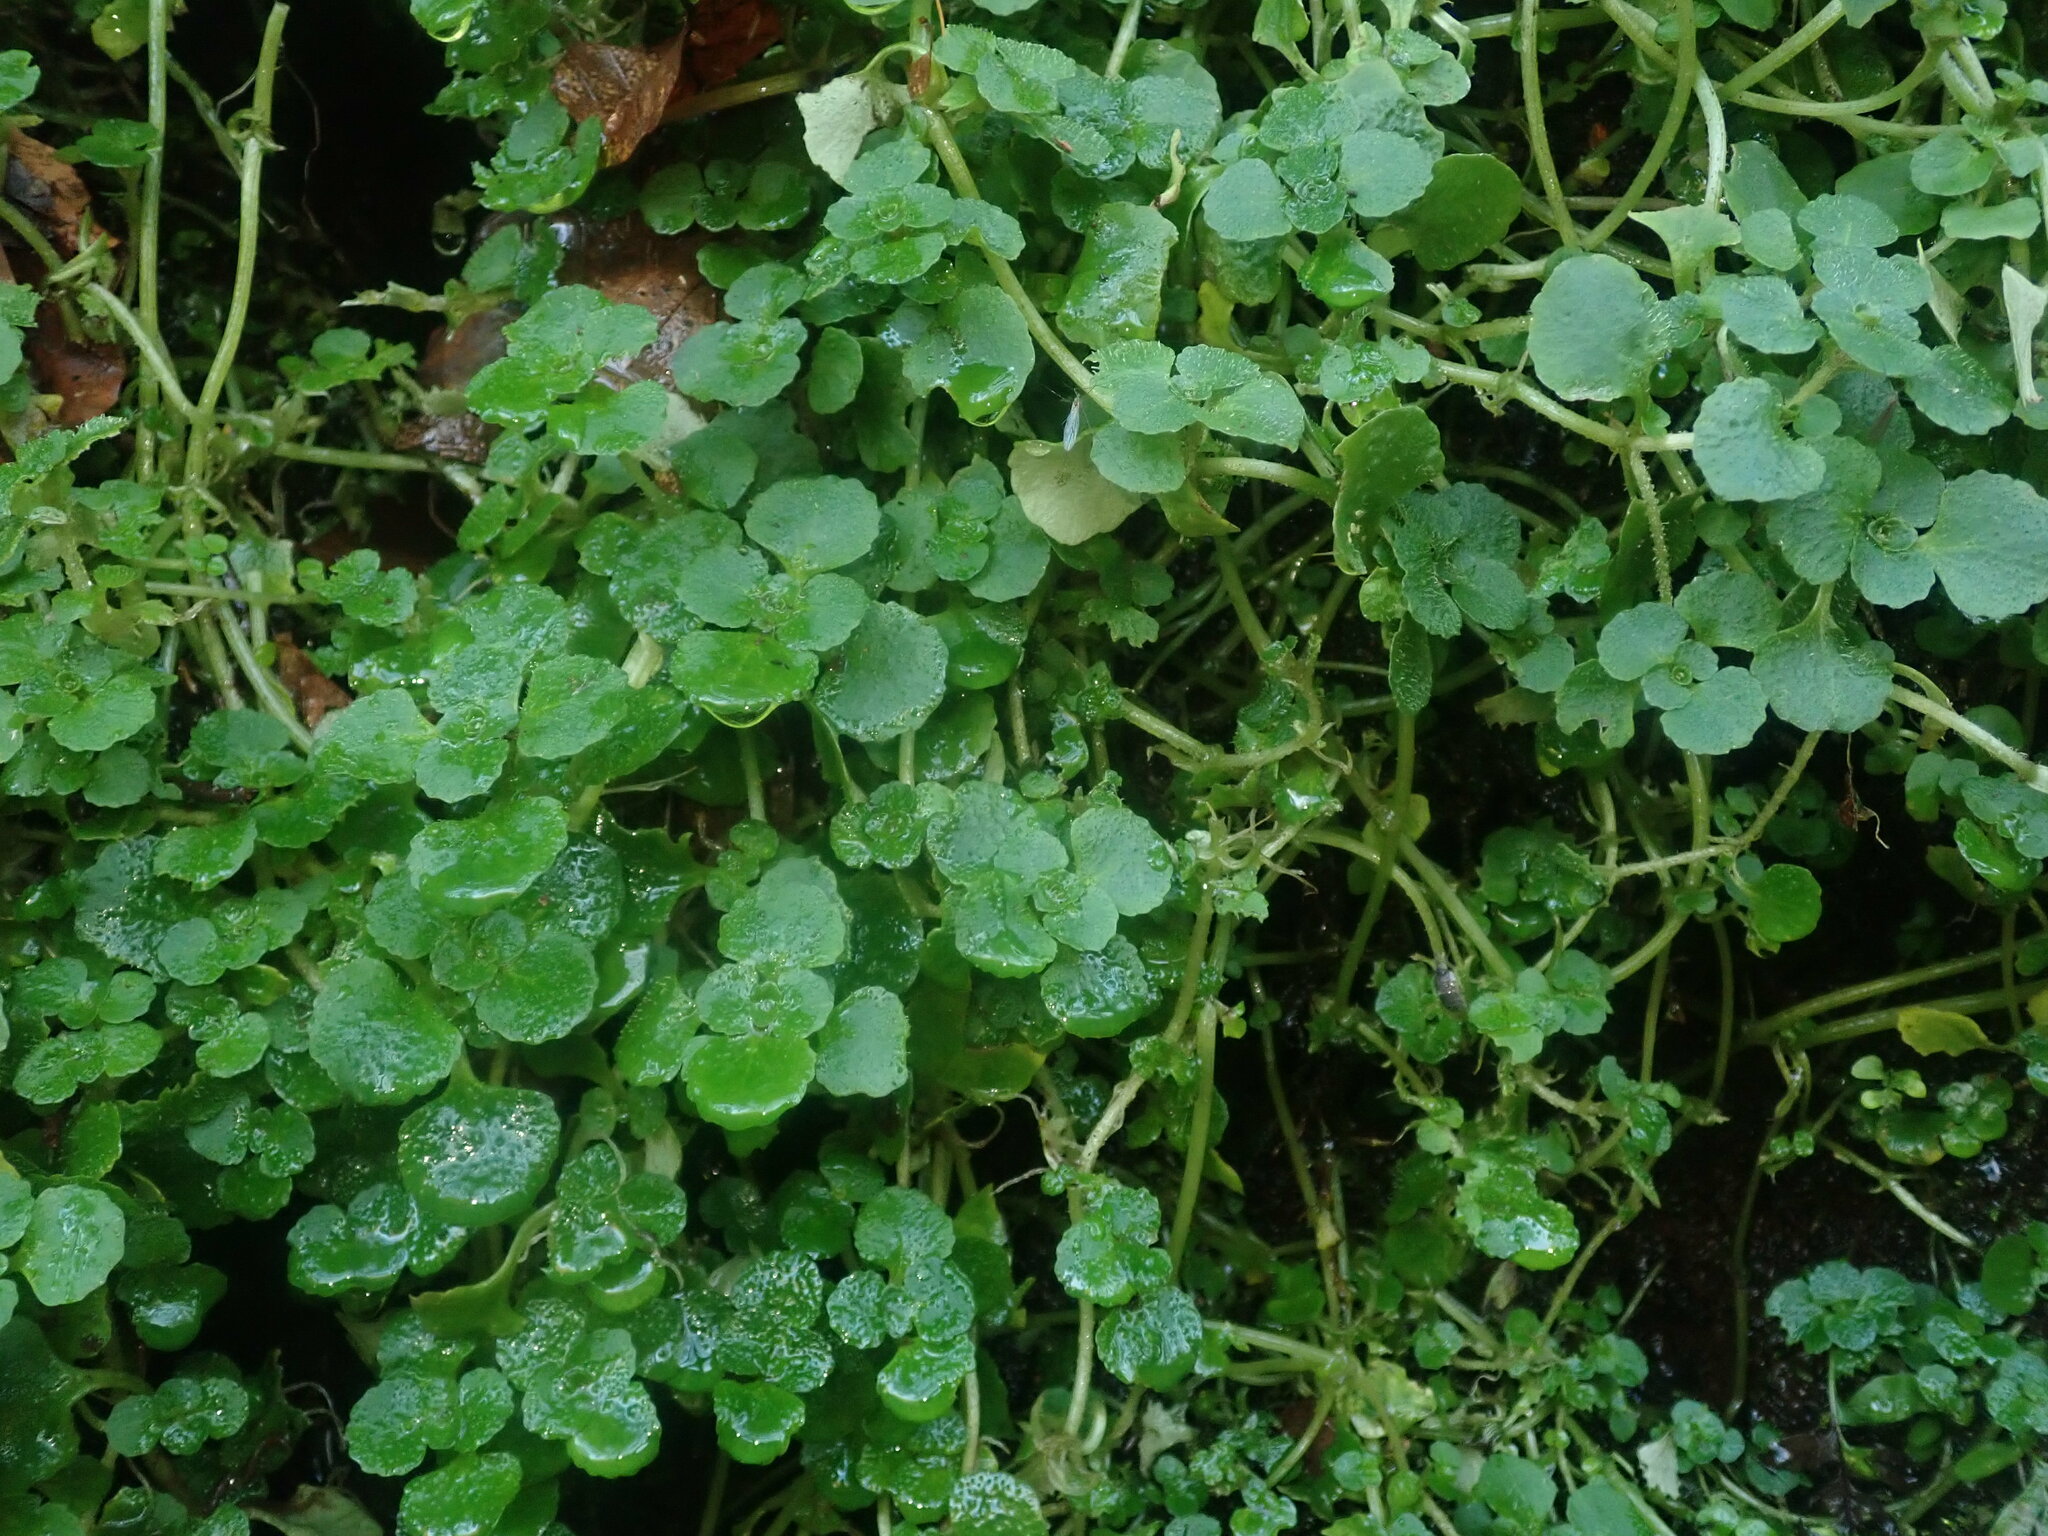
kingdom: Plantae
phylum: Tracheophyta
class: Magnoliopsida
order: Saxifragales
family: Saxifragaceae
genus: Chrysosplenium
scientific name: Chrysosplenium oppositifolium
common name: Opposite-leaved golden-saxifrage
